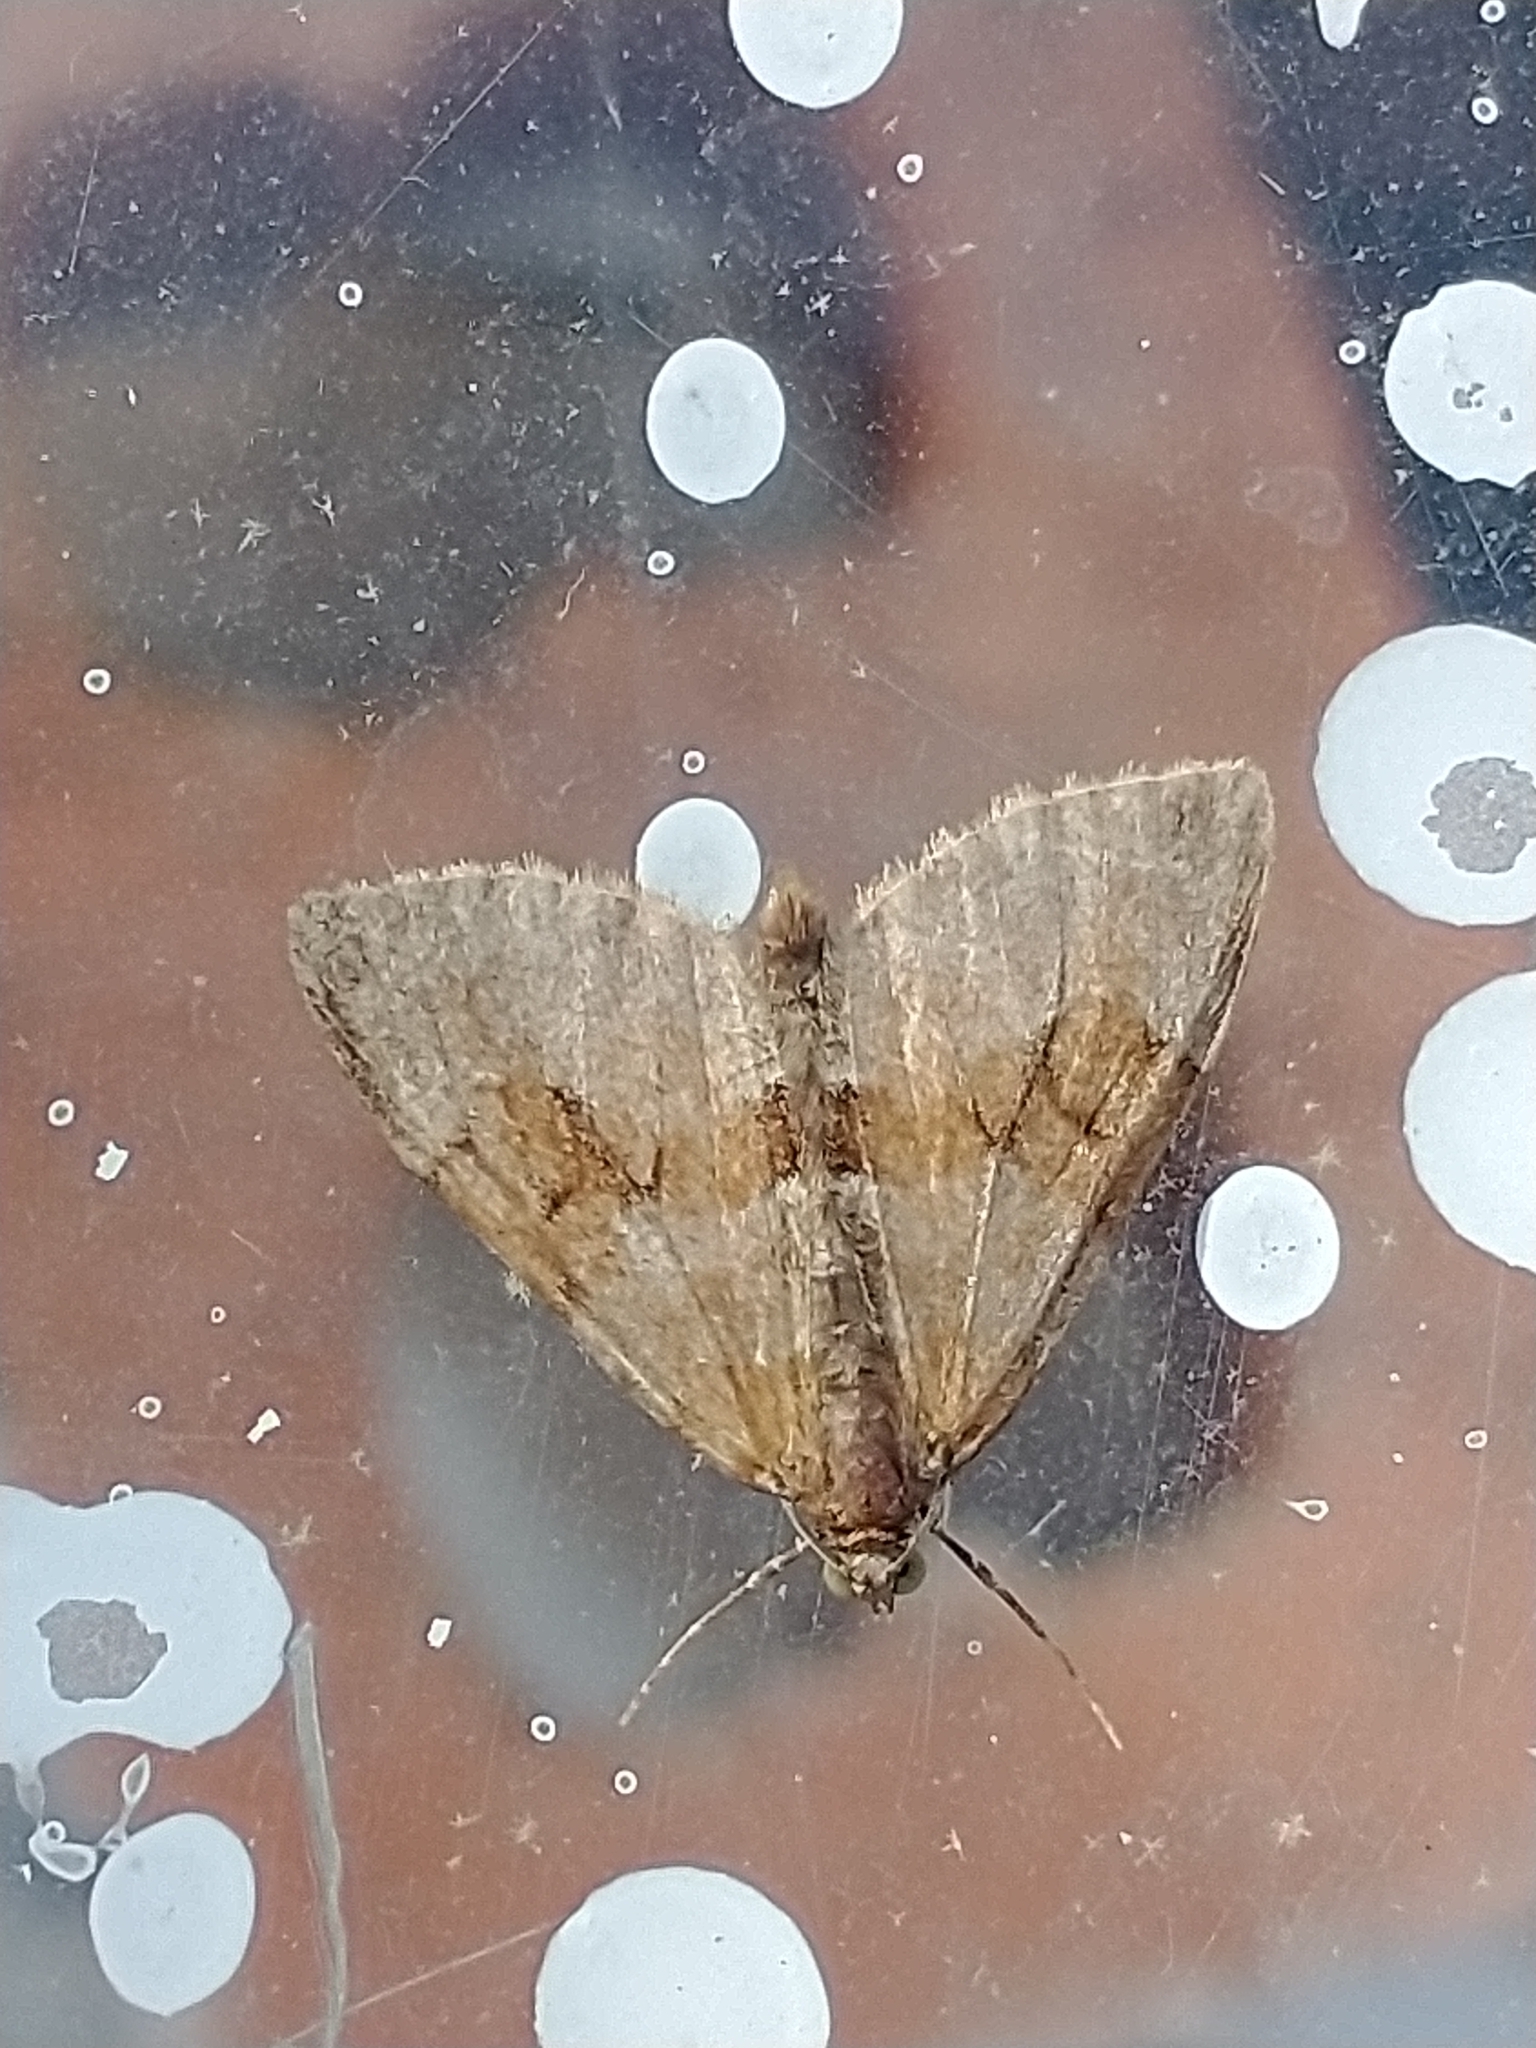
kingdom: Animalia
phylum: Arthropoda
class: Insecta
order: Lepidoptera
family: Geometridae
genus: Thera
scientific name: Thera obeliscata
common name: Grey pine carpet
